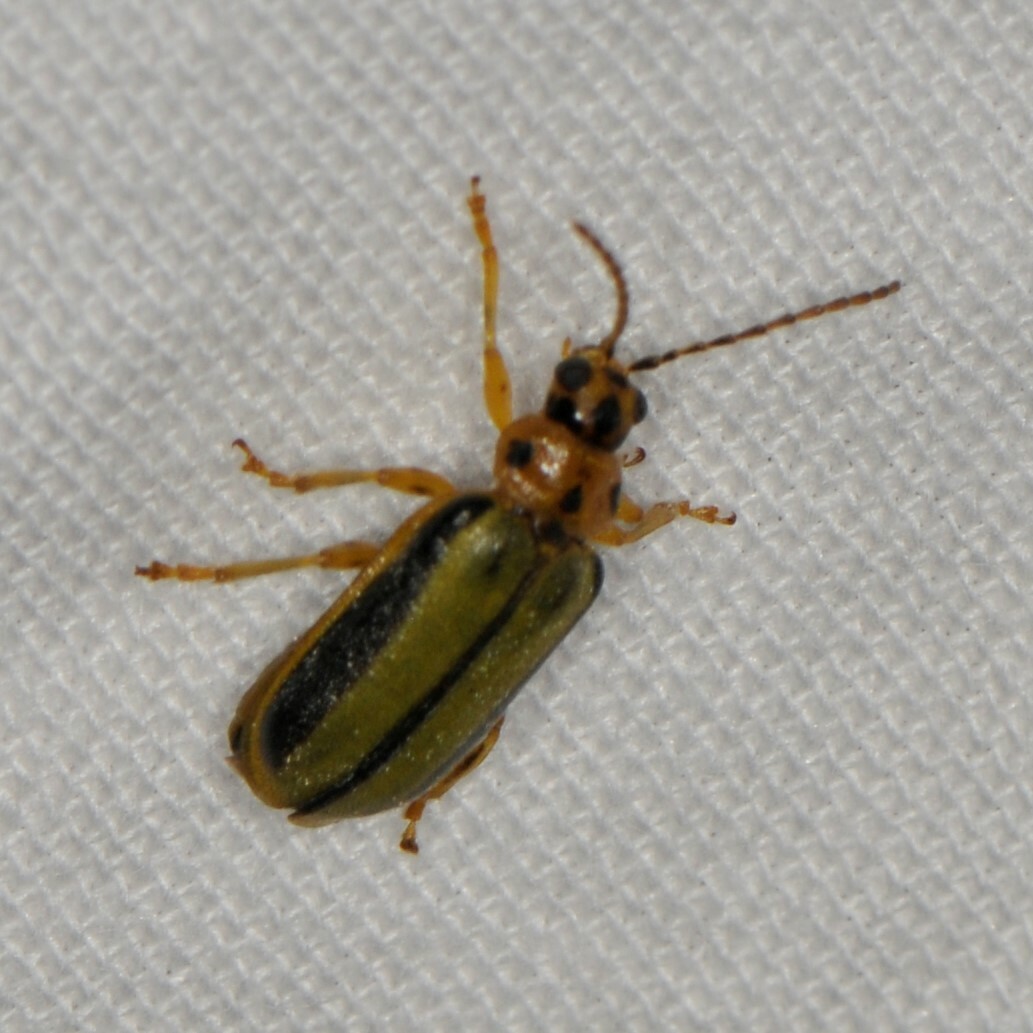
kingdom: Animalia
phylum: Arthropoda
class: Insecta
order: Coleoptera
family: Chrysomelidae
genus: Xanthogaleruca
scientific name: Xanthogaleruca luteola
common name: Elm leaf beetle
